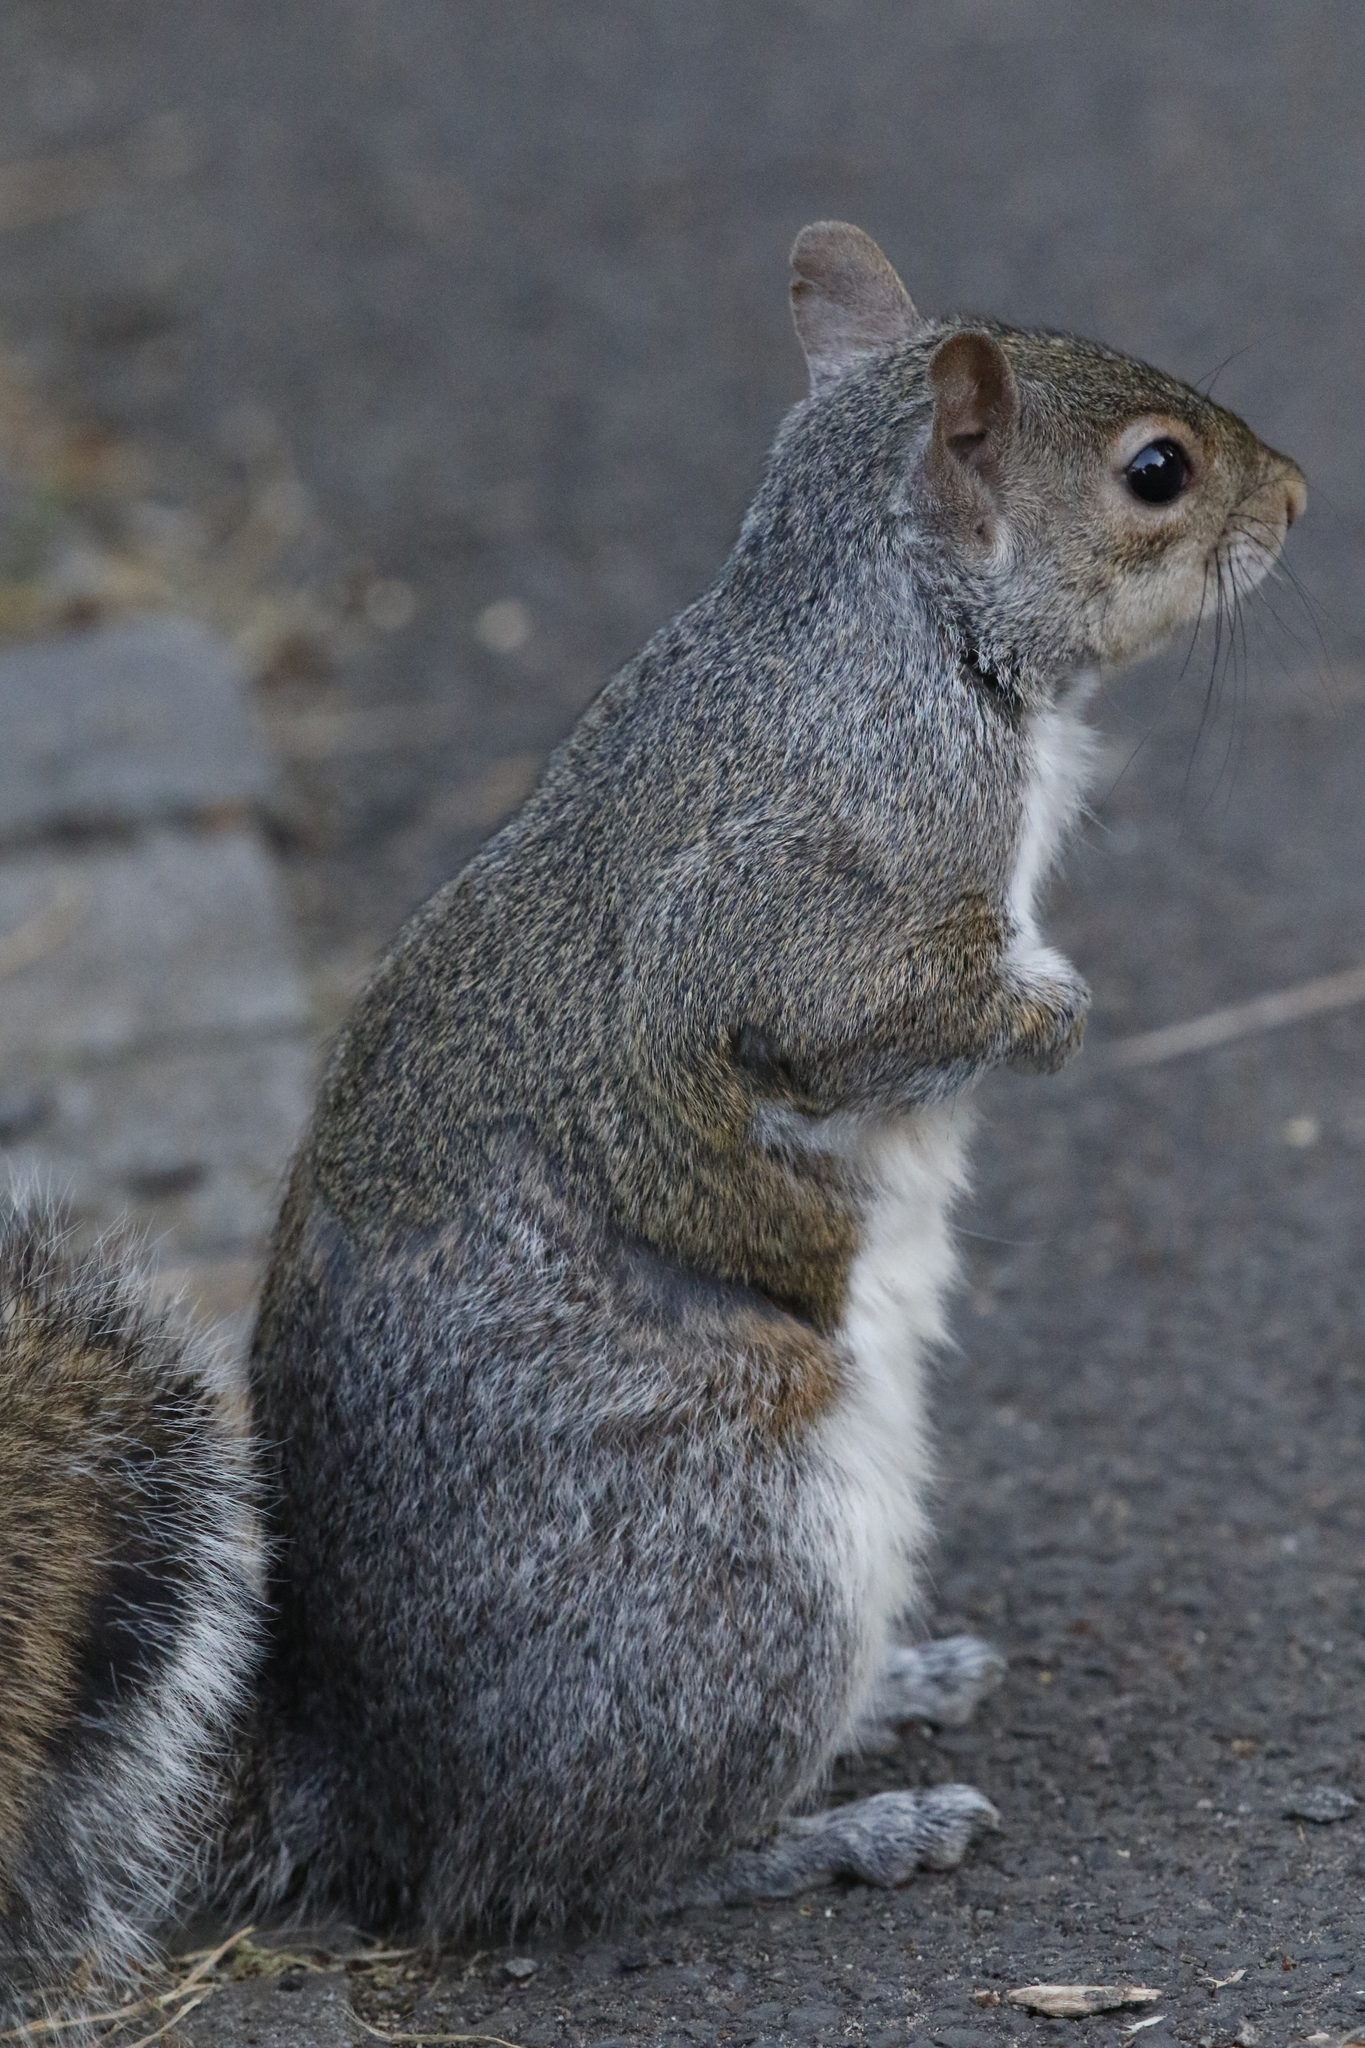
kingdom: Animalia
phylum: Chordata
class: Mammalia
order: Rodentia
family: Sciuridae
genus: Sciurus
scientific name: Sciurus carolinensis
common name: Eastern gray squirrel
